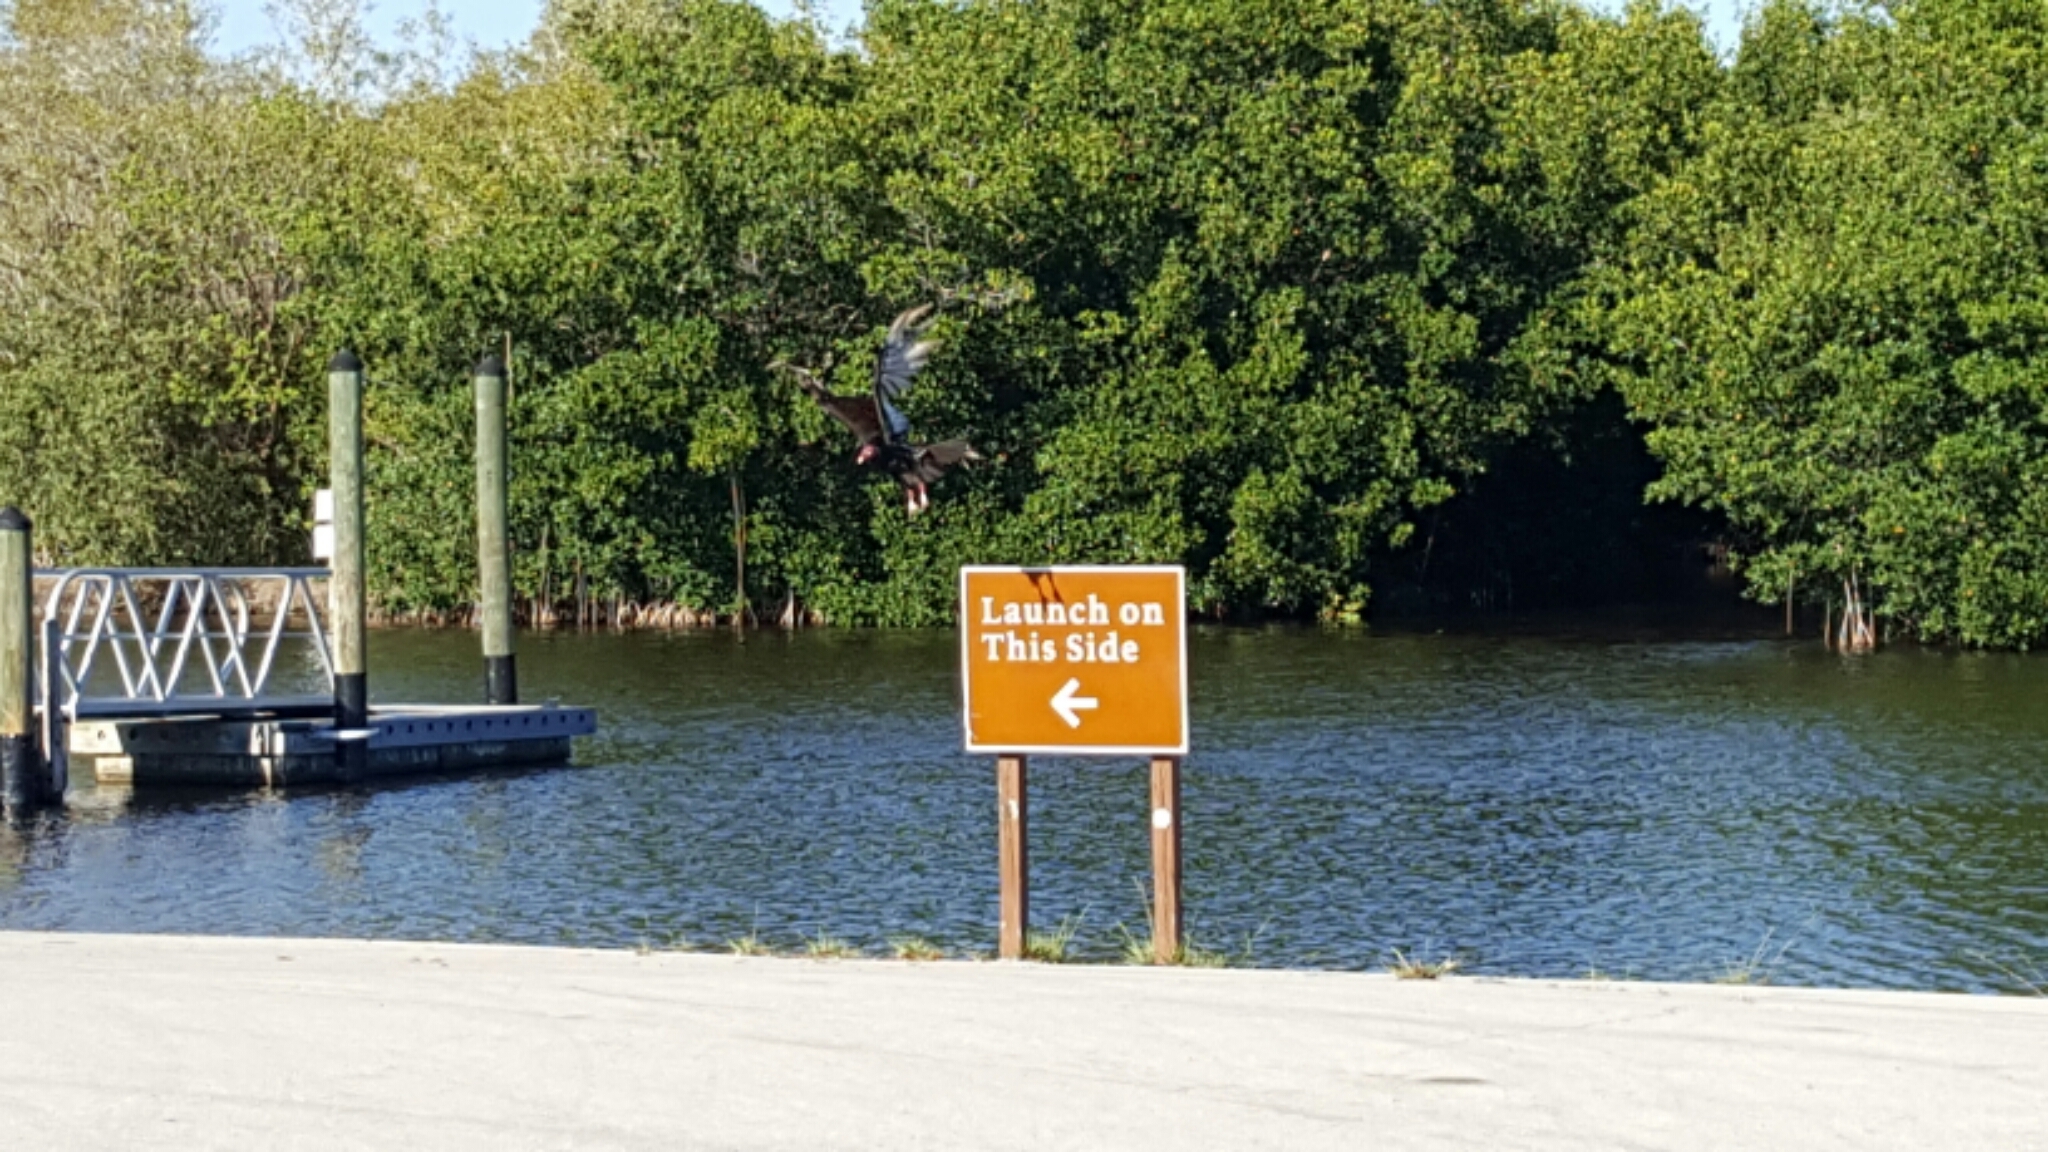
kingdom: Animalia
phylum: Chordata
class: Aves
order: Accipitriformes
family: Cathartidae
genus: Cathartes
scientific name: Cathartes aura
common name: Turkey vulture
